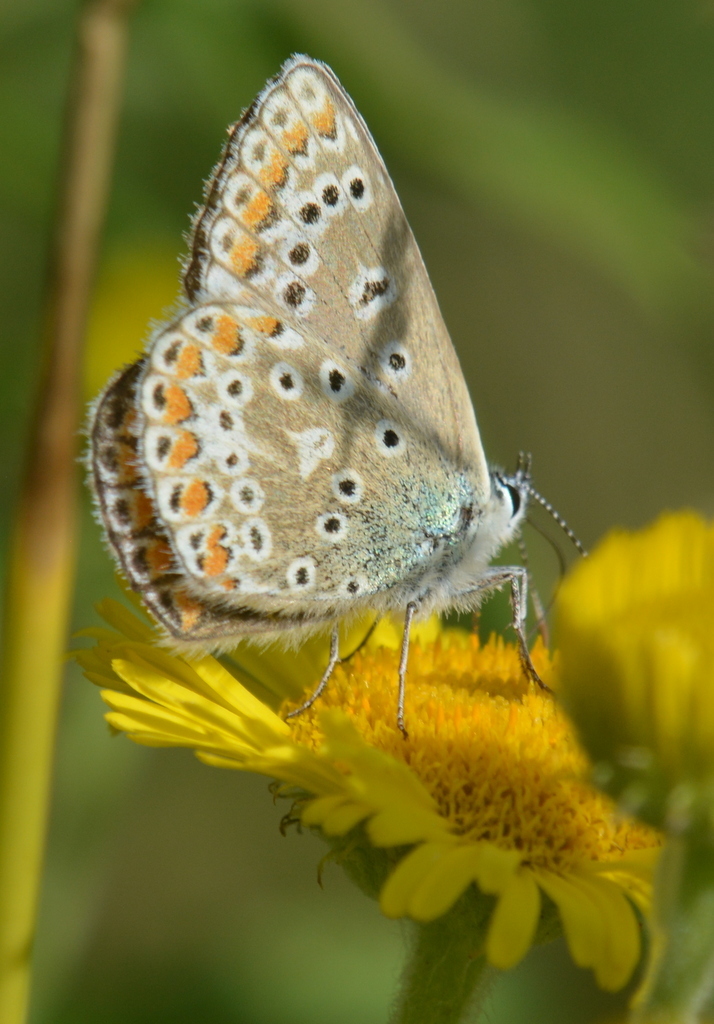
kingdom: Animalia
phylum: Arthropoda
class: Insecta
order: Lepidoptera
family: Lycaenidae
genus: Polyommatus
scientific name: Polyommatus icarus
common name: Common blue
